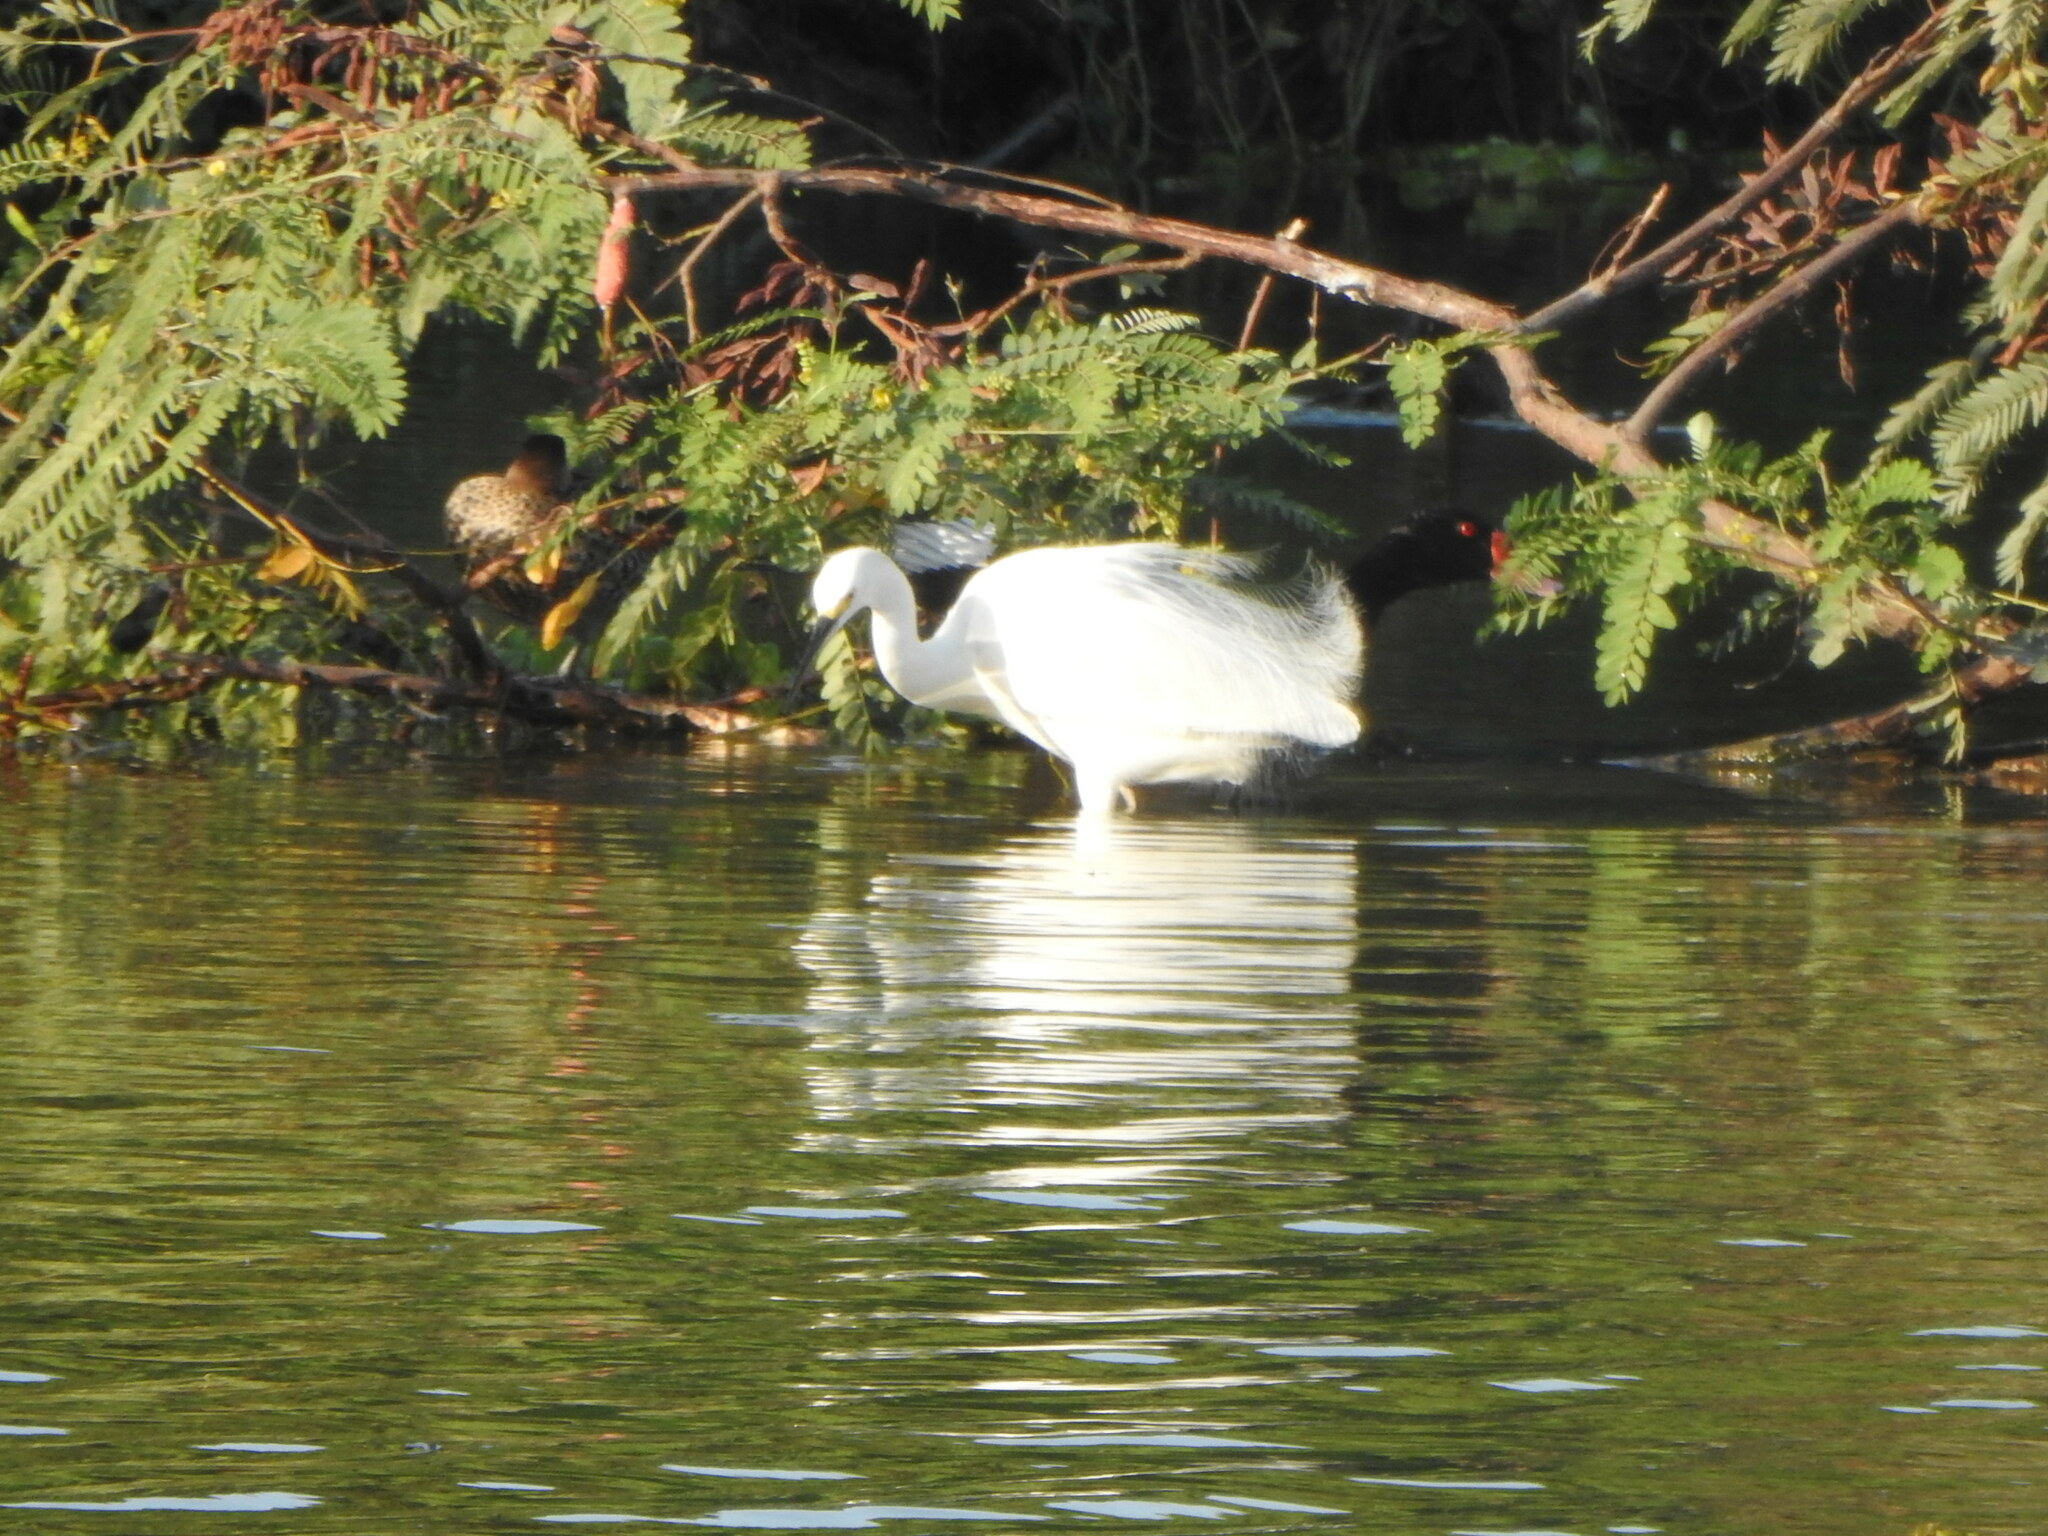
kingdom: Animalia
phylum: Chordata
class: Aves
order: Pelecaniformes
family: Ardeidae
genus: Egretta
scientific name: Egretta thula
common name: Snowy egret
